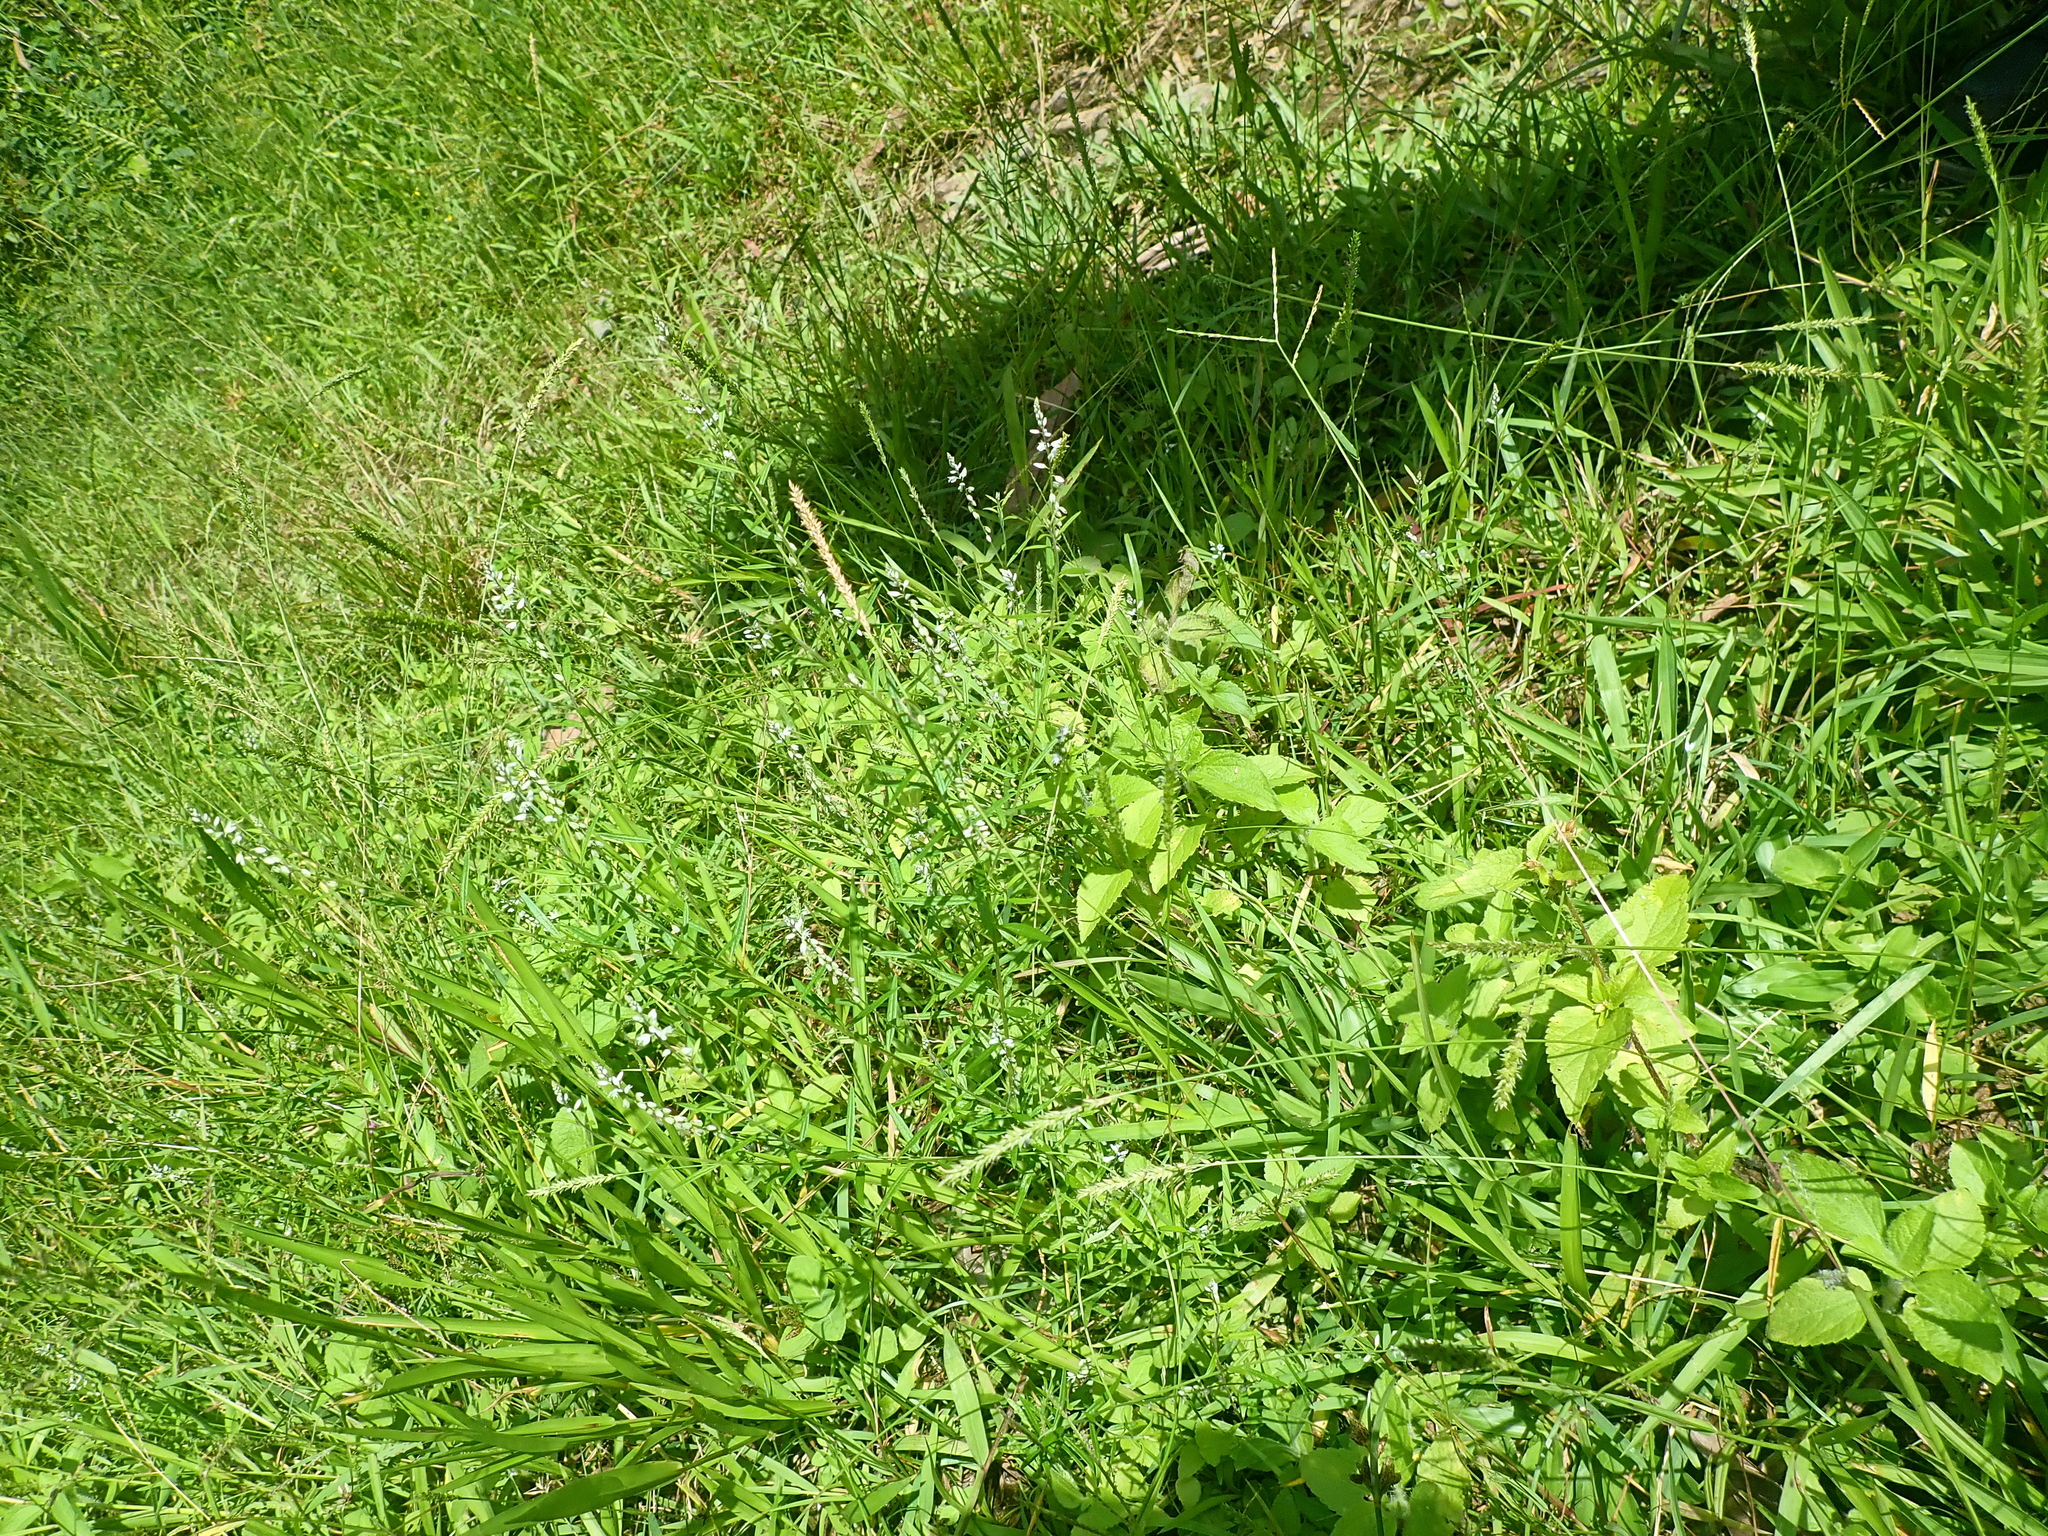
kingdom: Plantae
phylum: Tracheophyta
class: Magnoliopsida
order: Fabales
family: Polygalaceae
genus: Polygala
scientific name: Polygala paniculata
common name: Orosne
